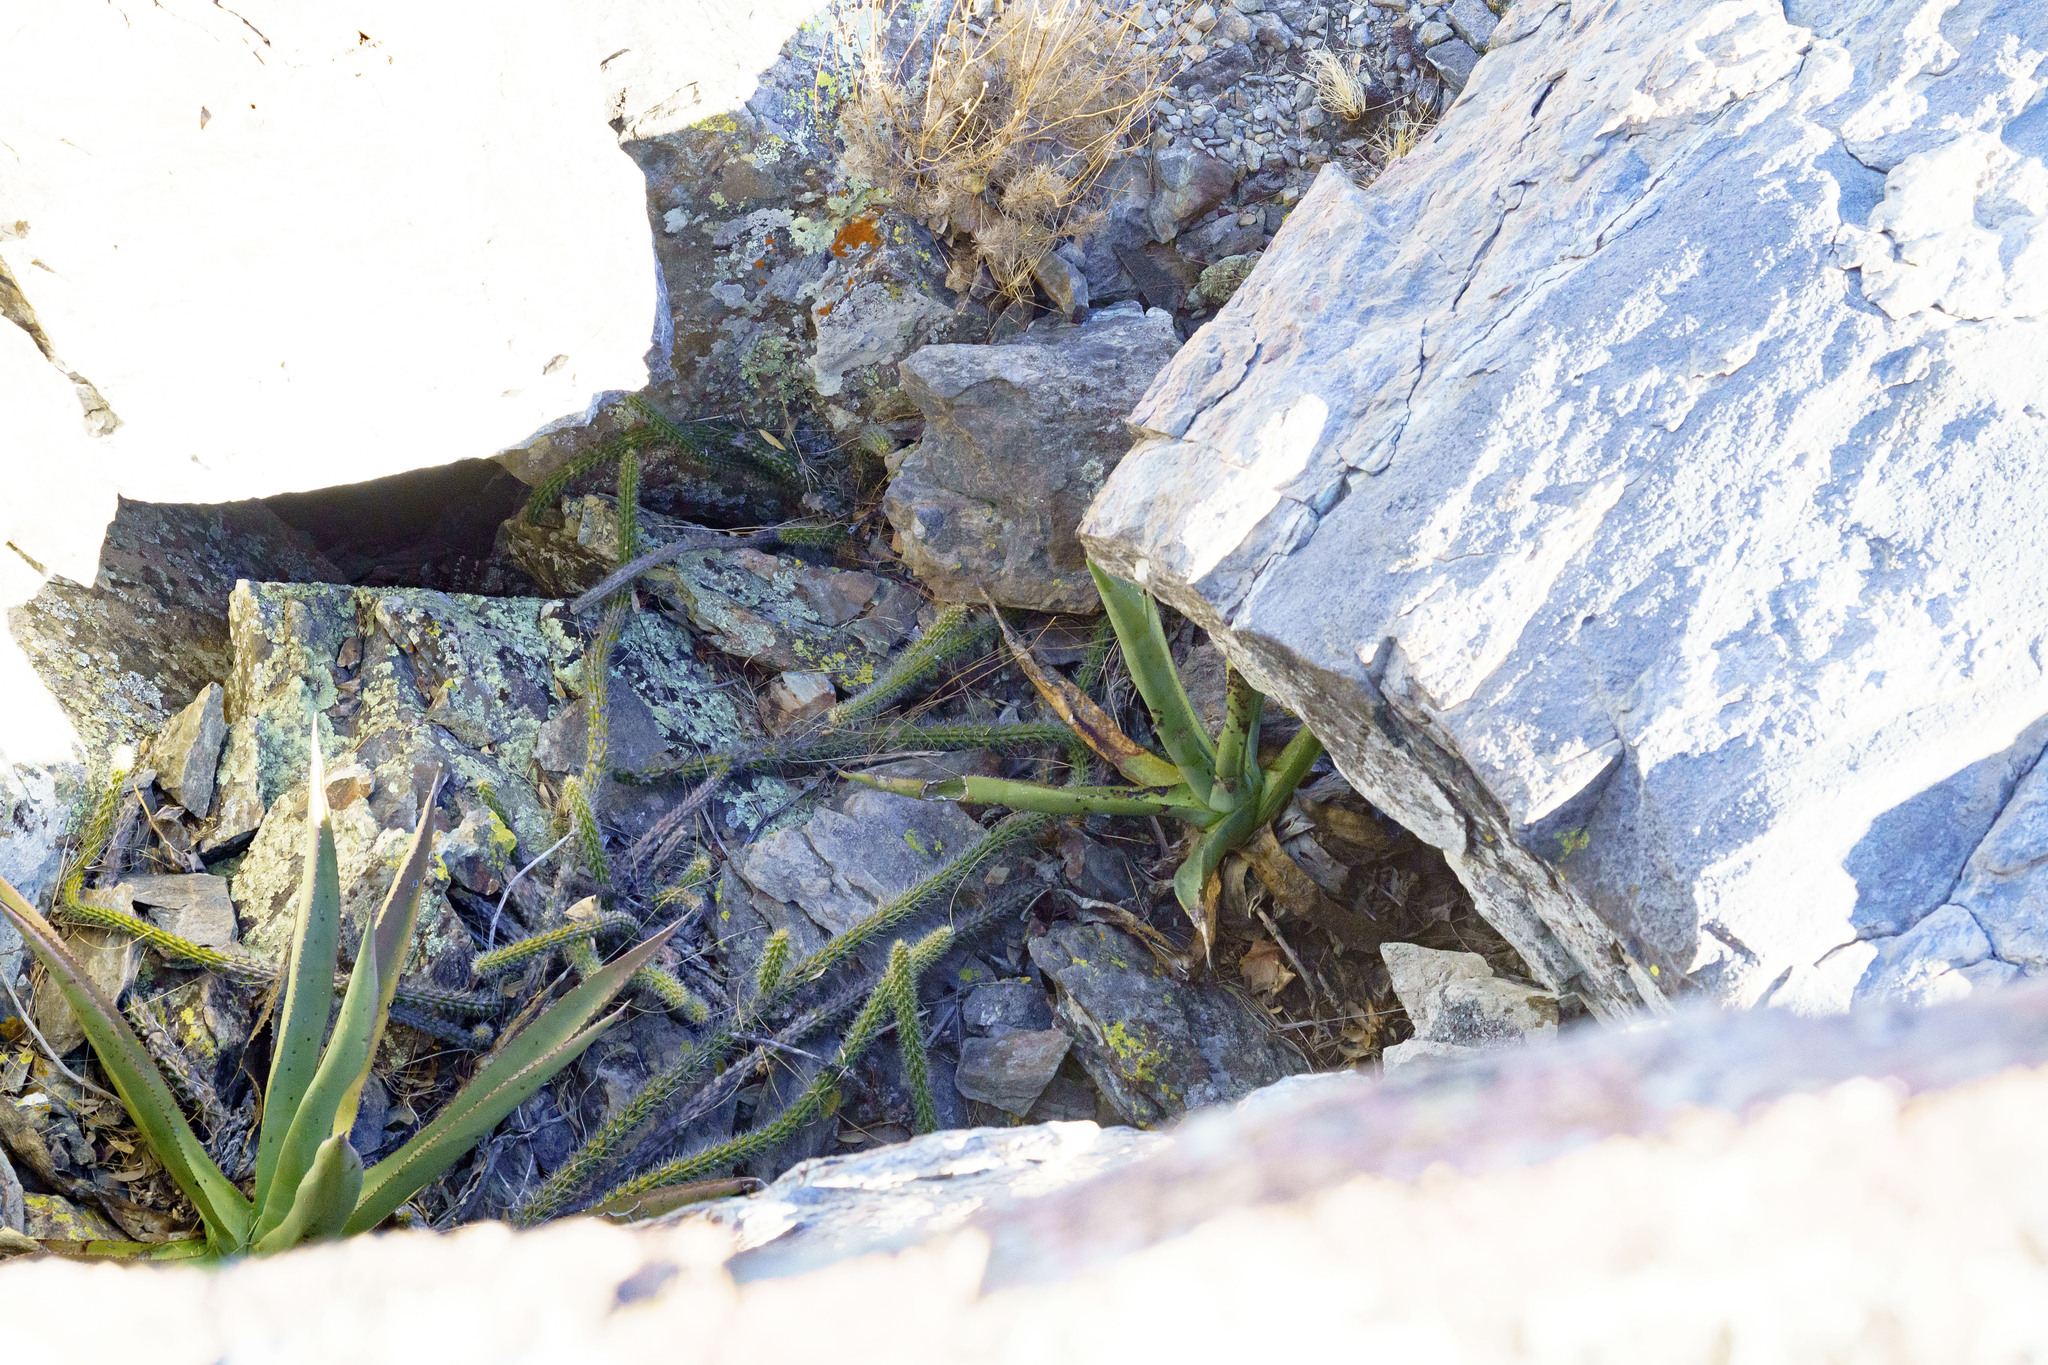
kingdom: Plantae
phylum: Tracheophyta
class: Magnoliopsida
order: Caryophyllales
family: Cactaceae
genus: Echinocereus
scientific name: Echinocereus pensilis
